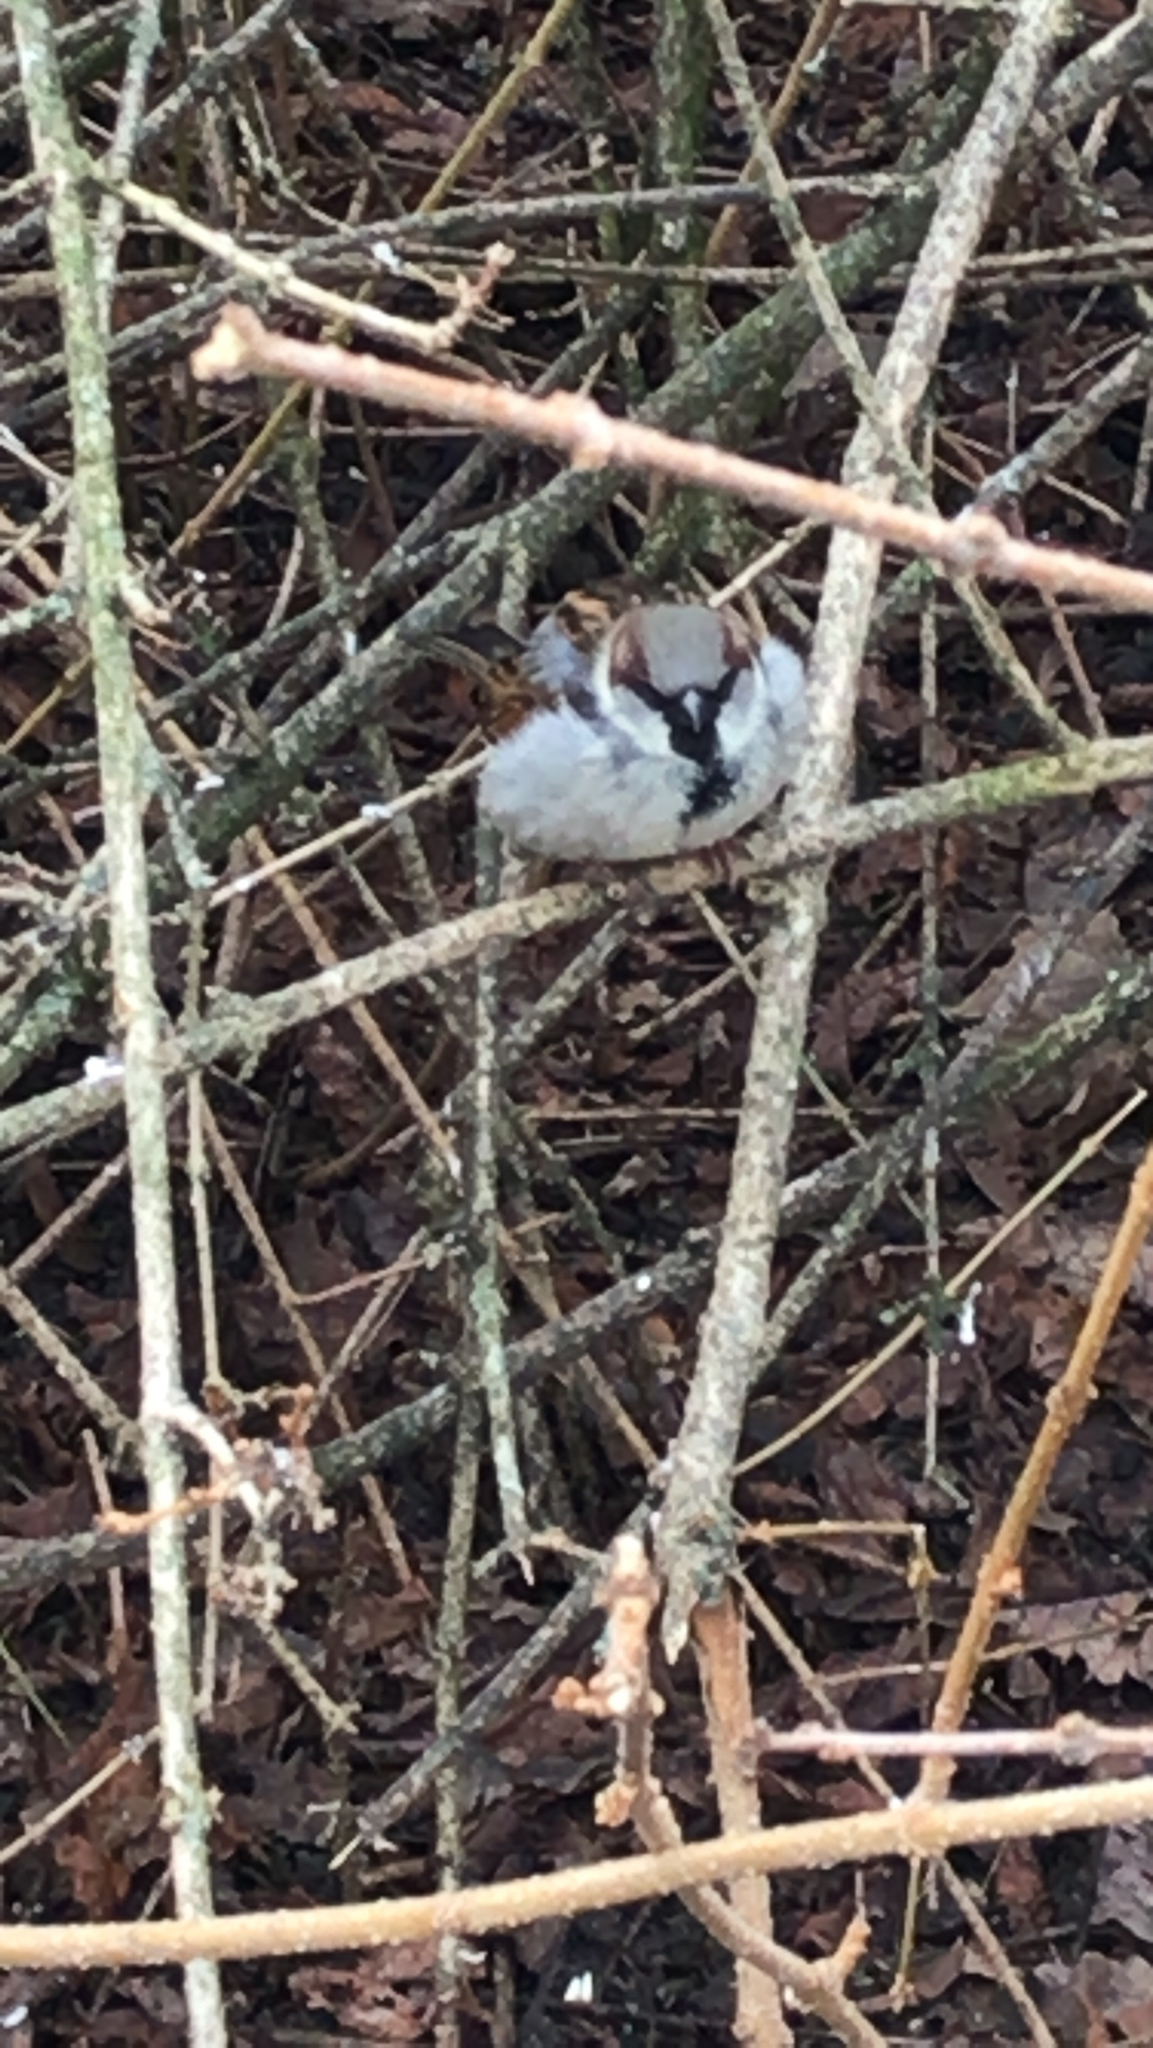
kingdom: Animalia
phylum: Chordata
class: Aves
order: Passeriformes
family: Passeridae
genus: Passer
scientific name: Passer domesticus
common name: House sparrow
